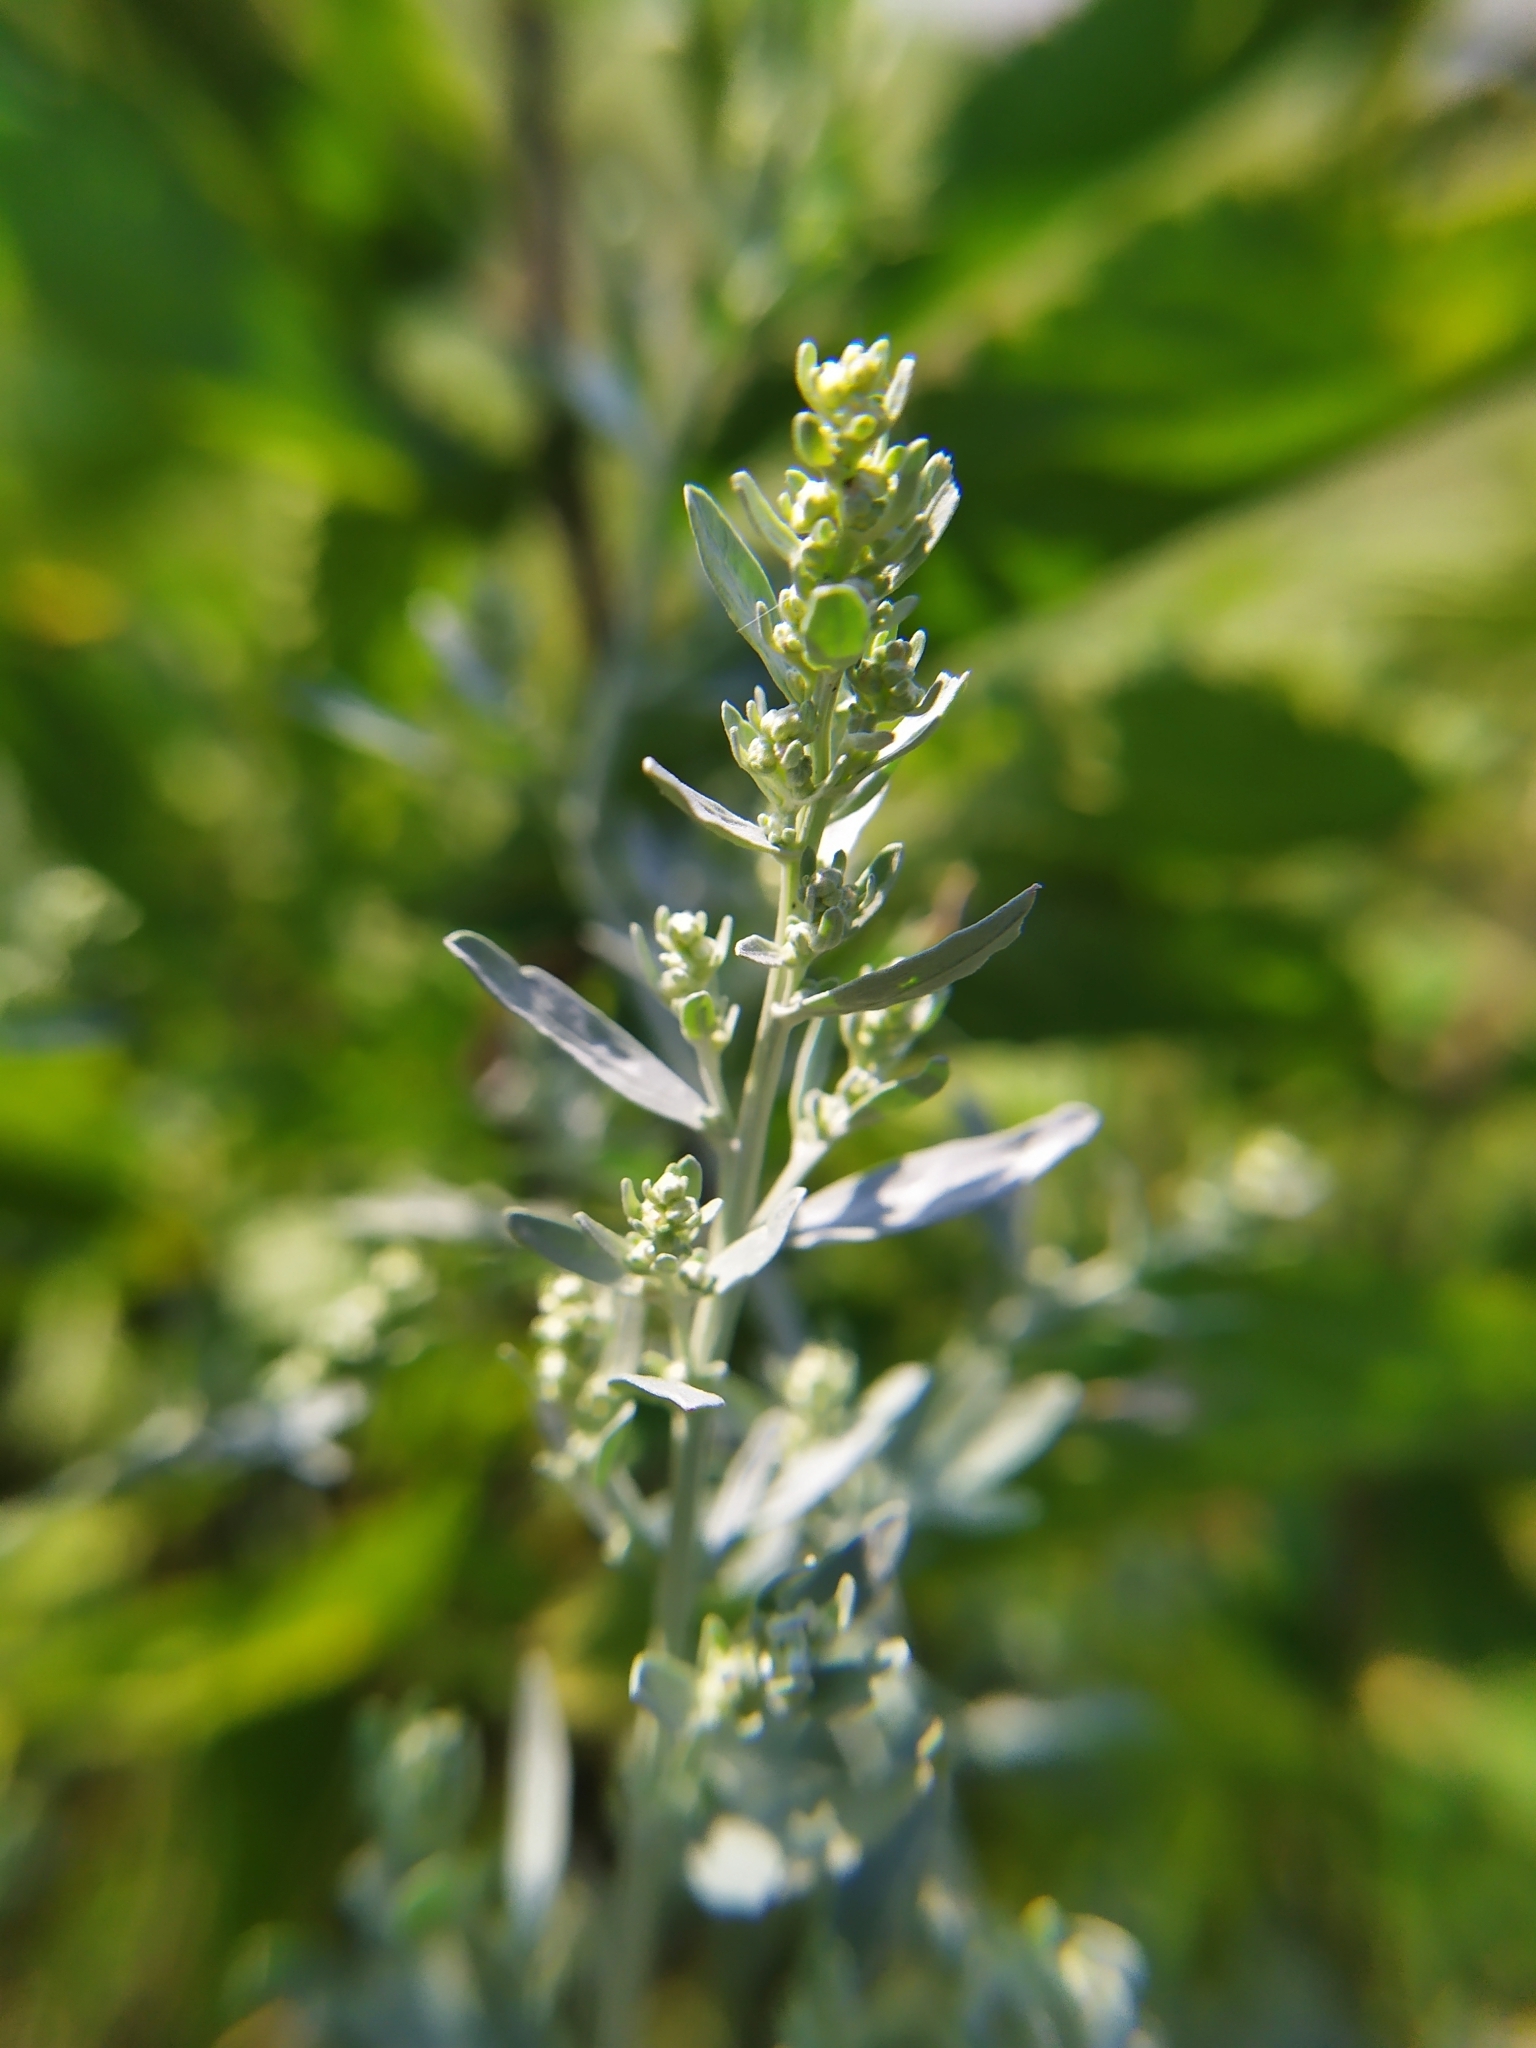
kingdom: Plantae
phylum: Tracheophyta
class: Magnoliopsida
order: Asterales
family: Asteraceae
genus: Artemisia
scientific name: Artemisia absinthium
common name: Wormwood
